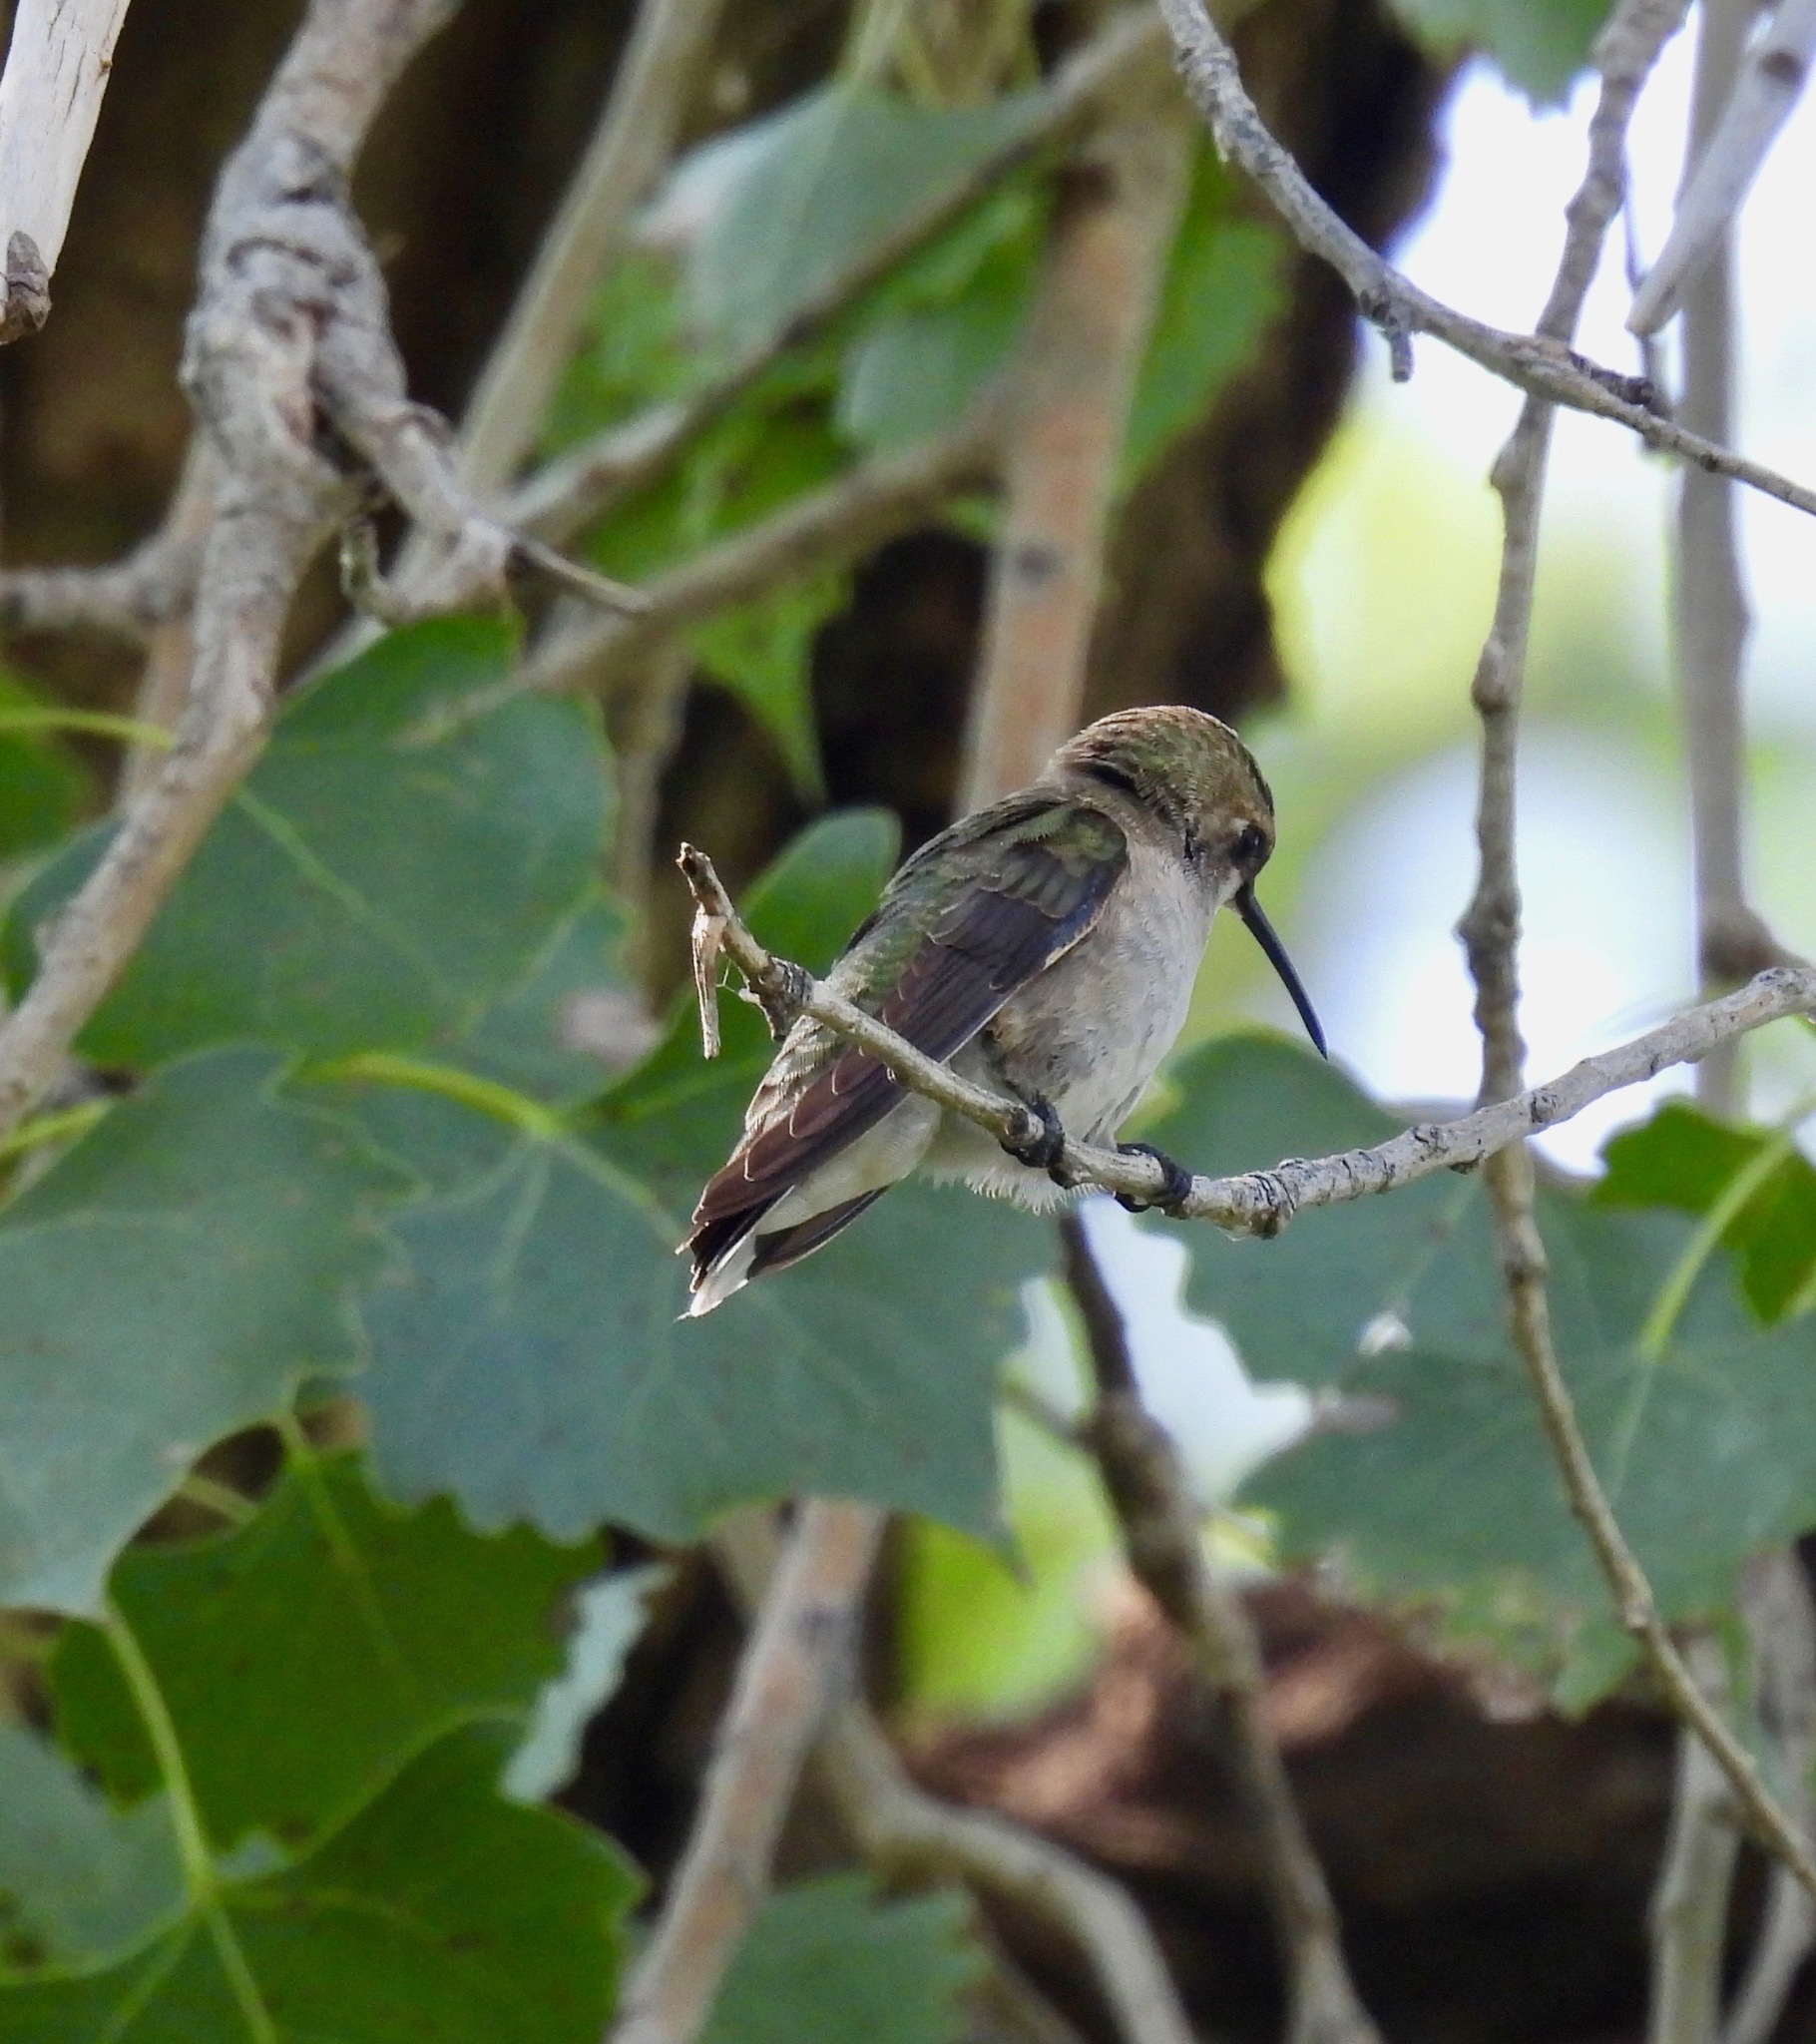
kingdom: Animalia
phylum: Chordata
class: Aves
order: Apodiformes
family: Trochilidae
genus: Archilochus
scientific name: Archilochus alexandri
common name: Black-chinned hummingbird
